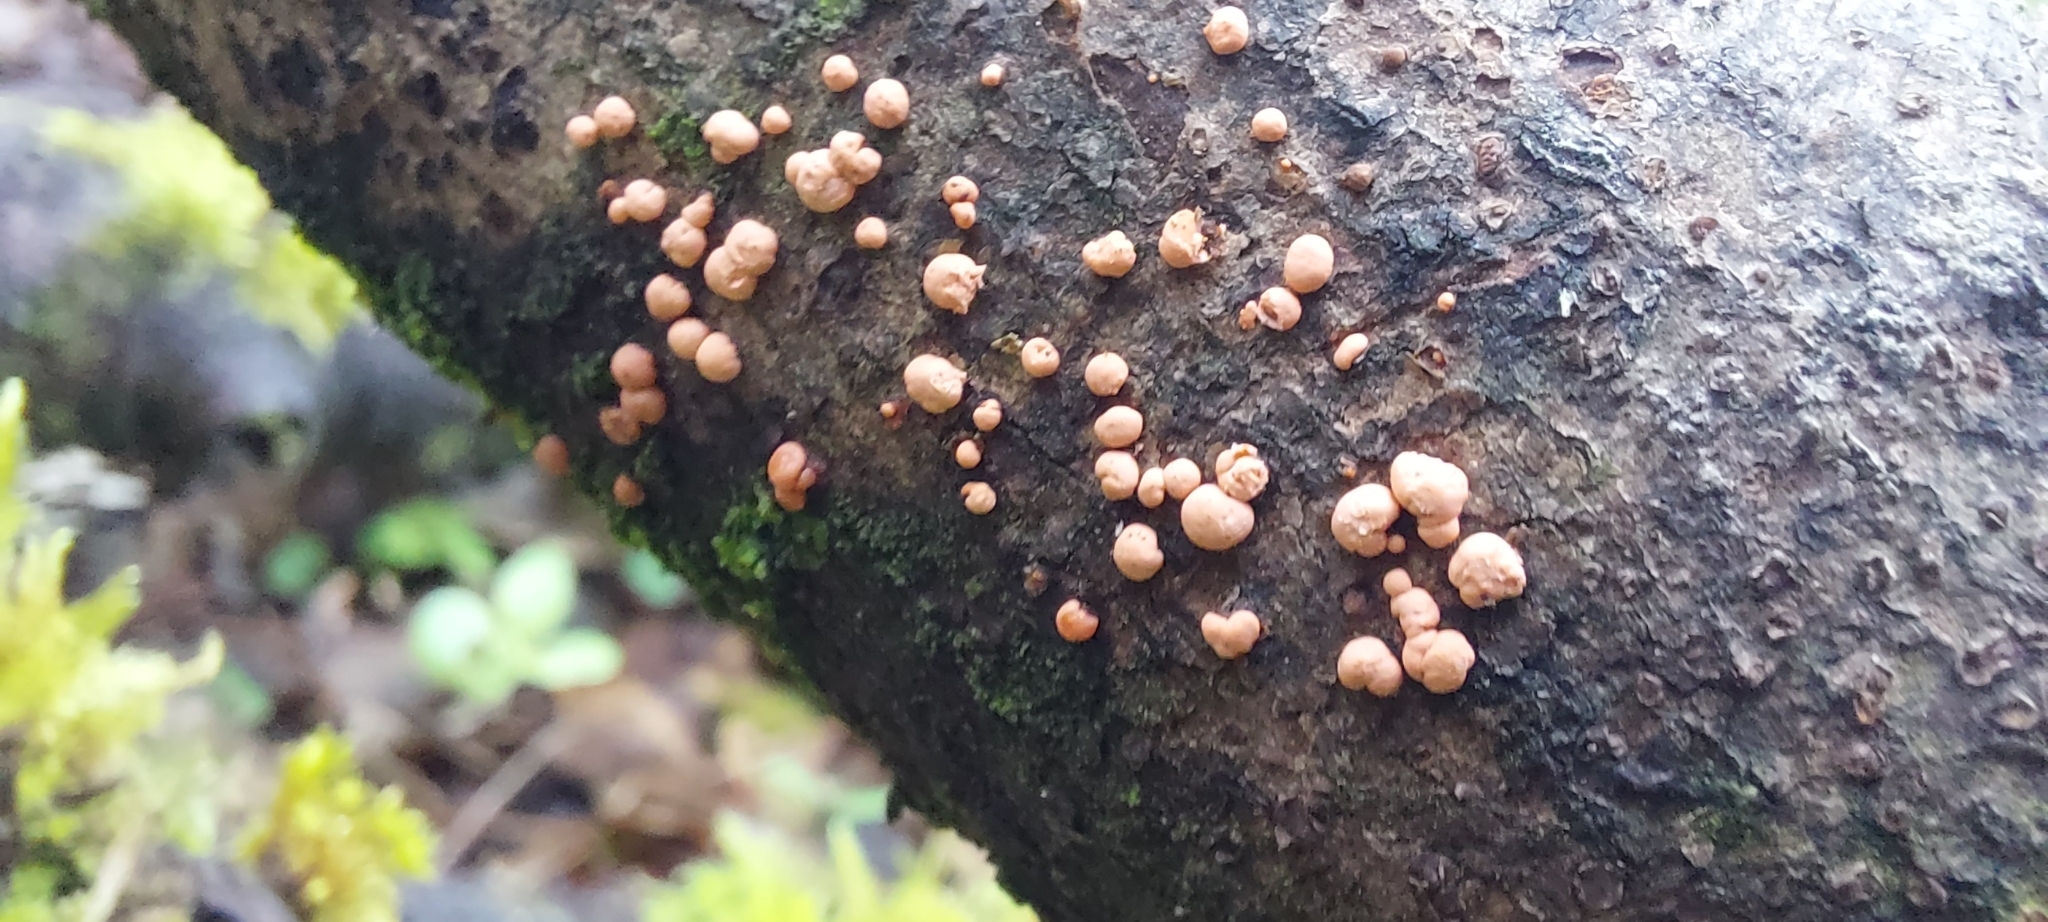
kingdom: Fungi
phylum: Ascomycota
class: Sordariomycetes
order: Hypocreales
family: Nectriaceae
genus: Nectria
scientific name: Nectria cinnabarina
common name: Coral spot
